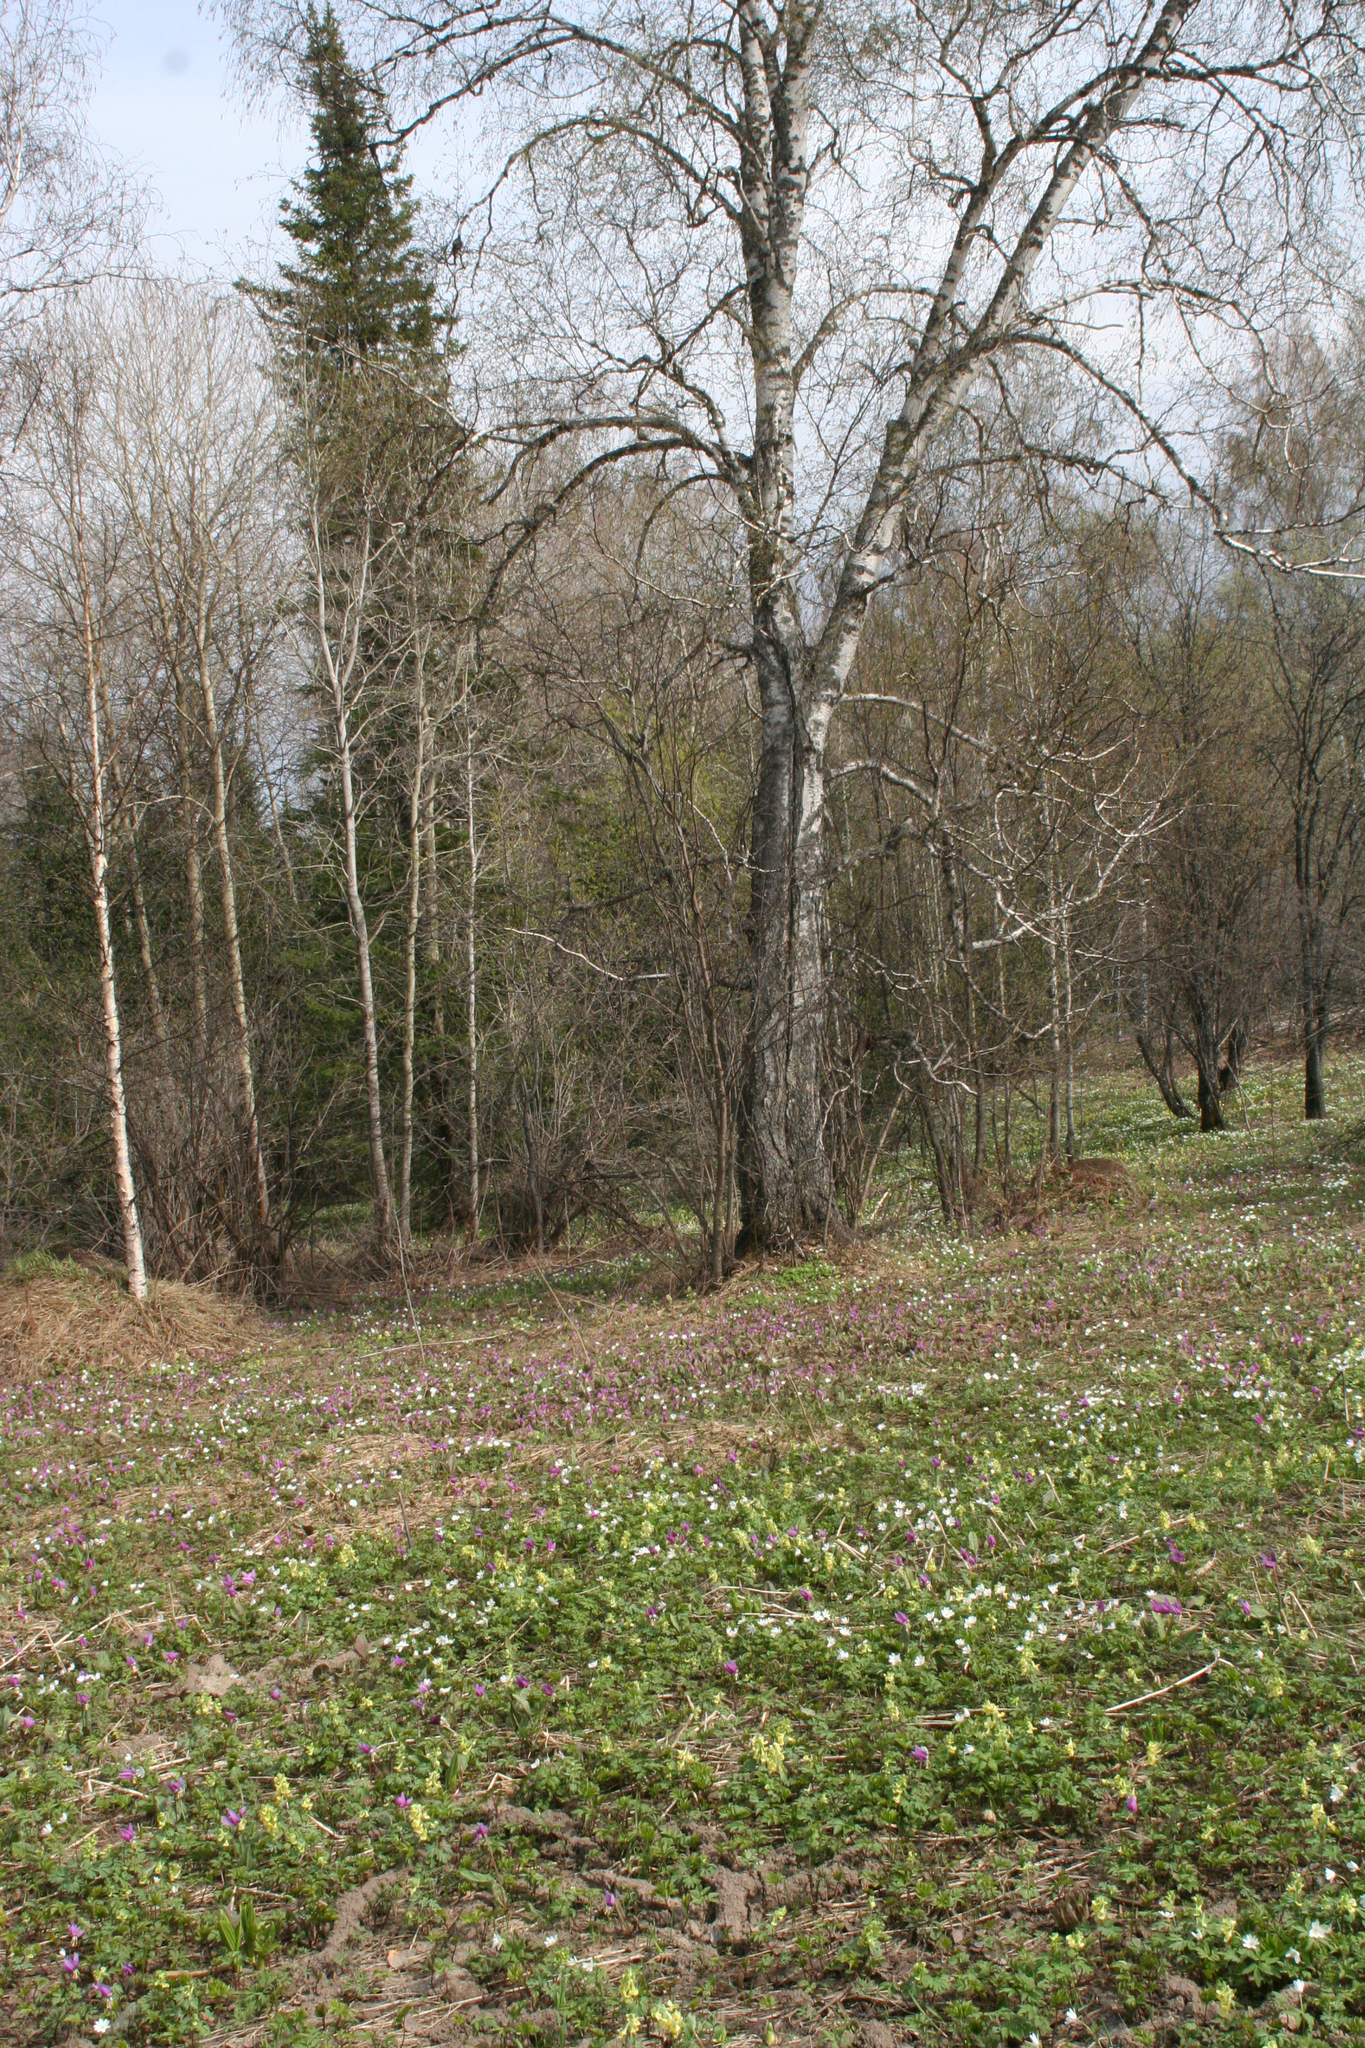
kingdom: Plantae
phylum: Tracheophyta
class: Magnoliopsida
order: Fagales
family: Betulaceae
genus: Betula
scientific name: Betula pendula
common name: Silver birch
